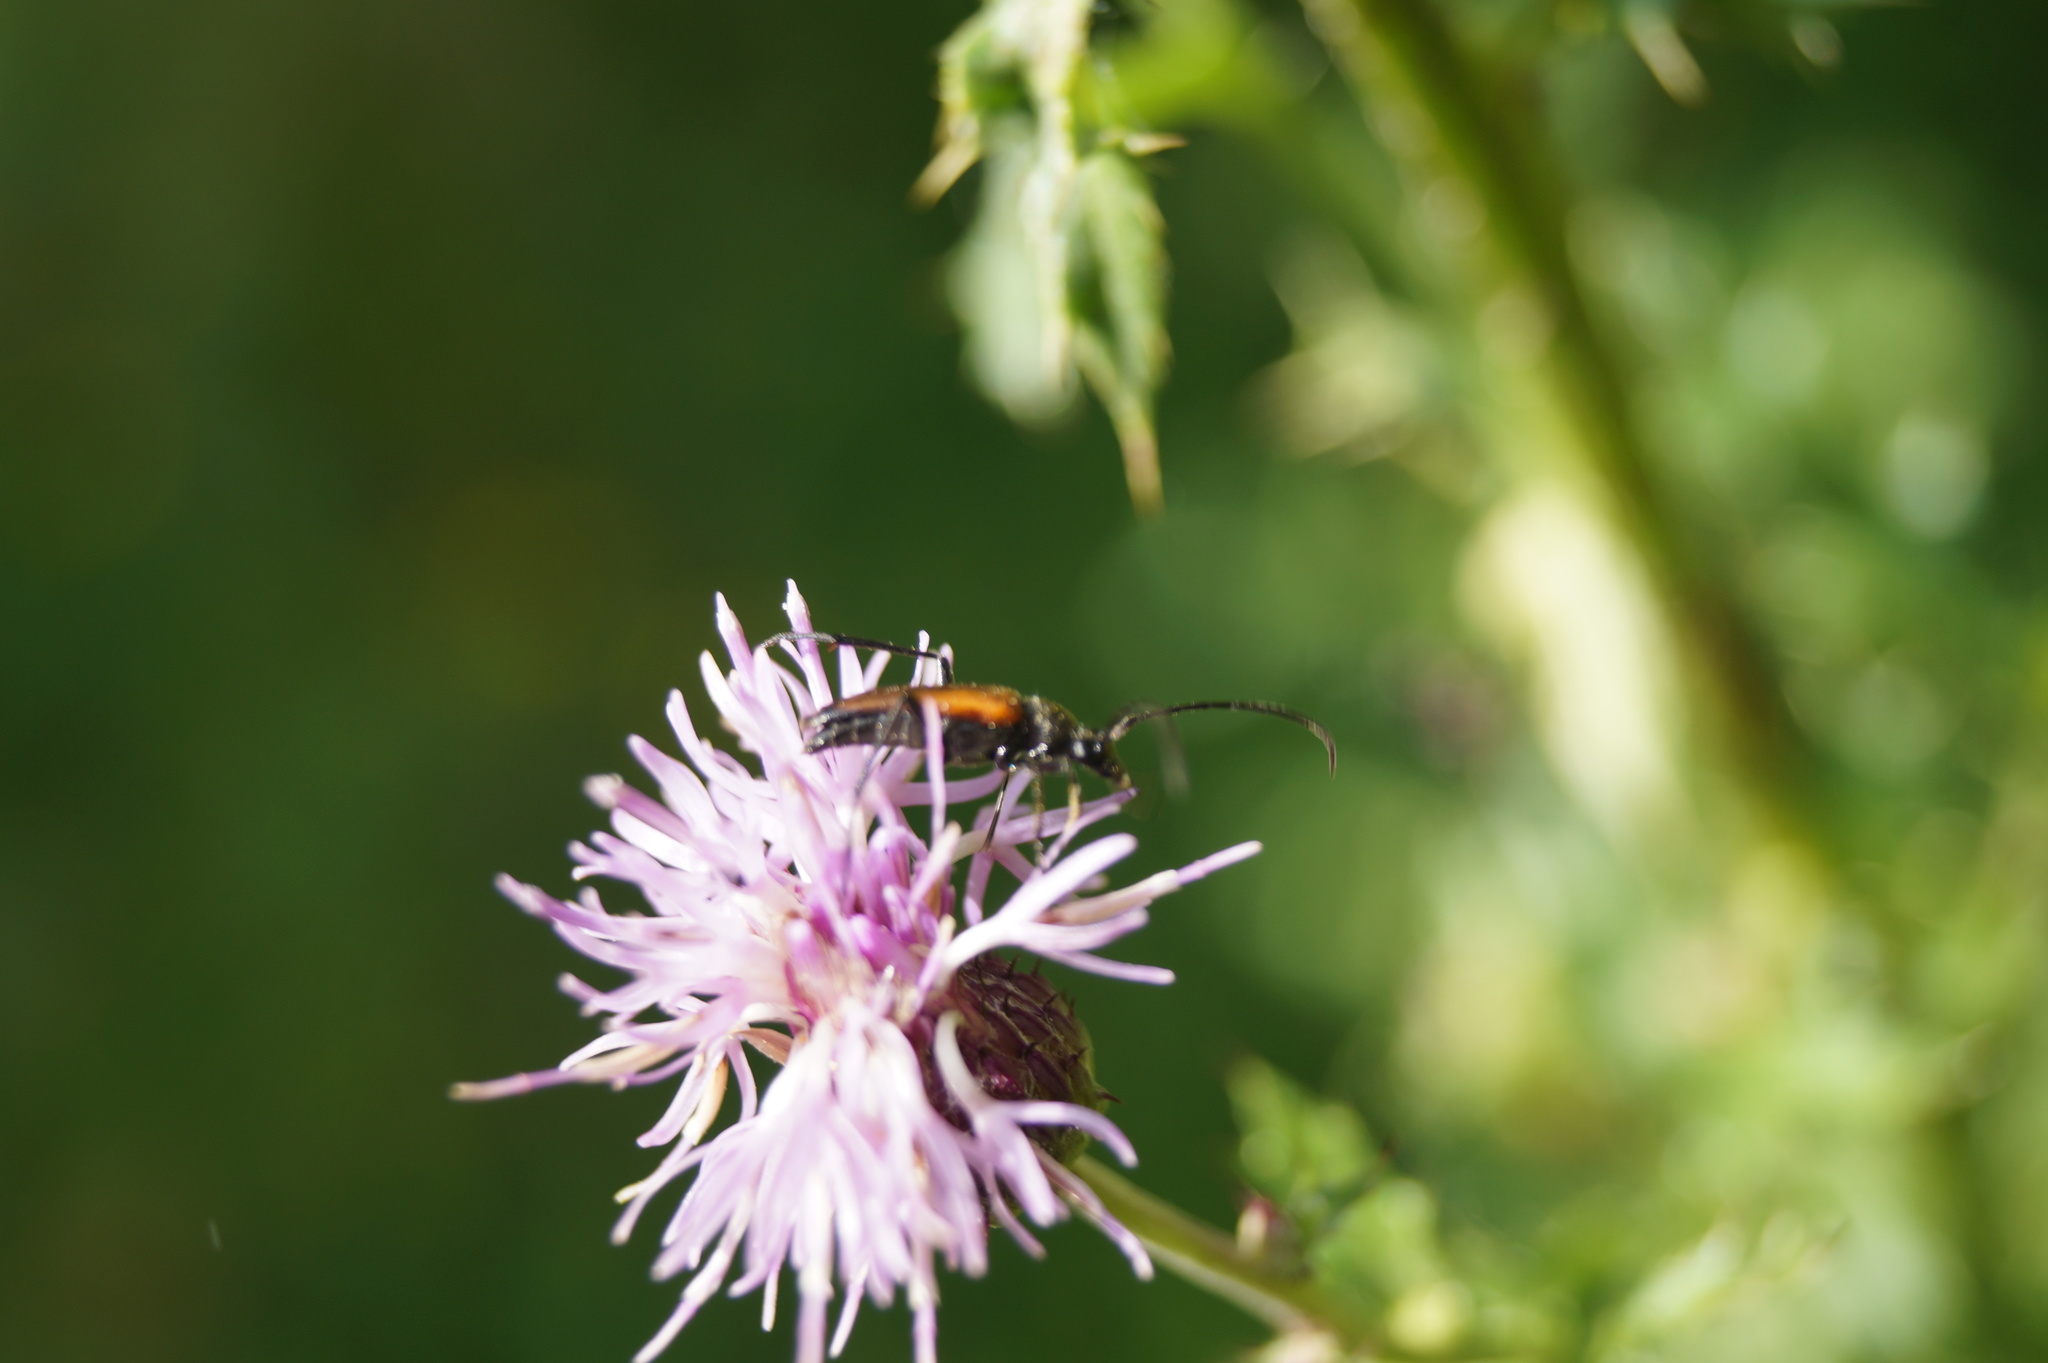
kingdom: Animalia
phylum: Arthropoda
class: Insecta
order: Coleoptera
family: Cerambycidae
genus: Stenurella
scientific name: Stenurella melanura
